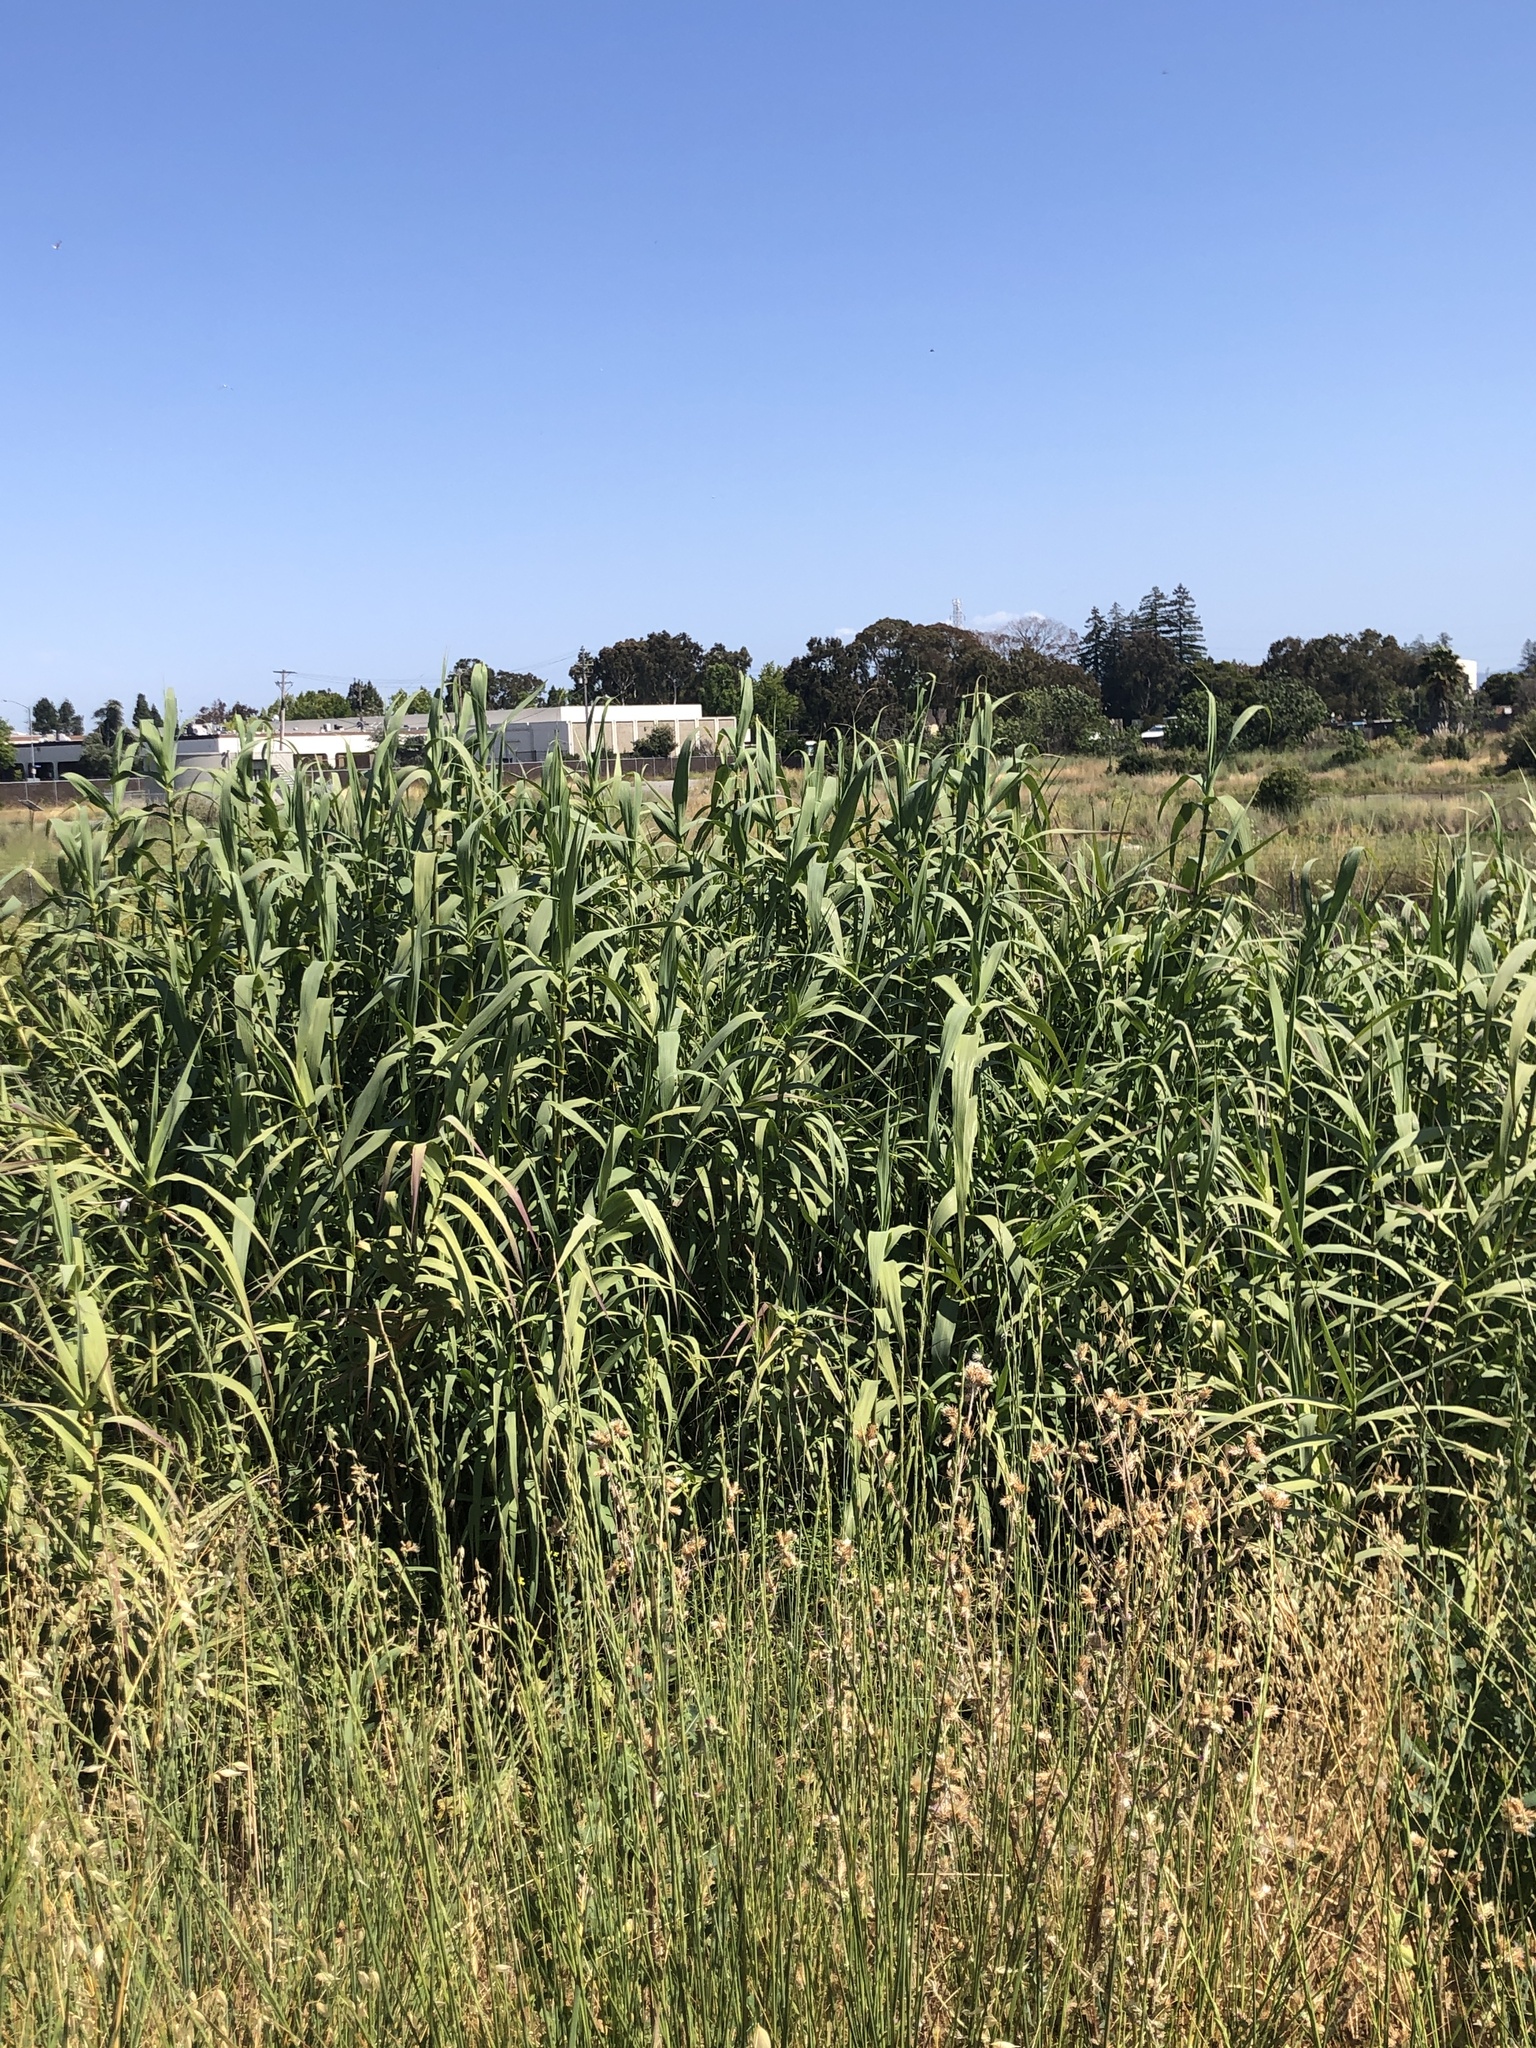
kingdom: Plantae
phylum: Tracheophyta
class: Liliopsida
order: Poales
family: Poaceae
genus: Arundo
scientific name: Arundo donax
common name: Giant reed
